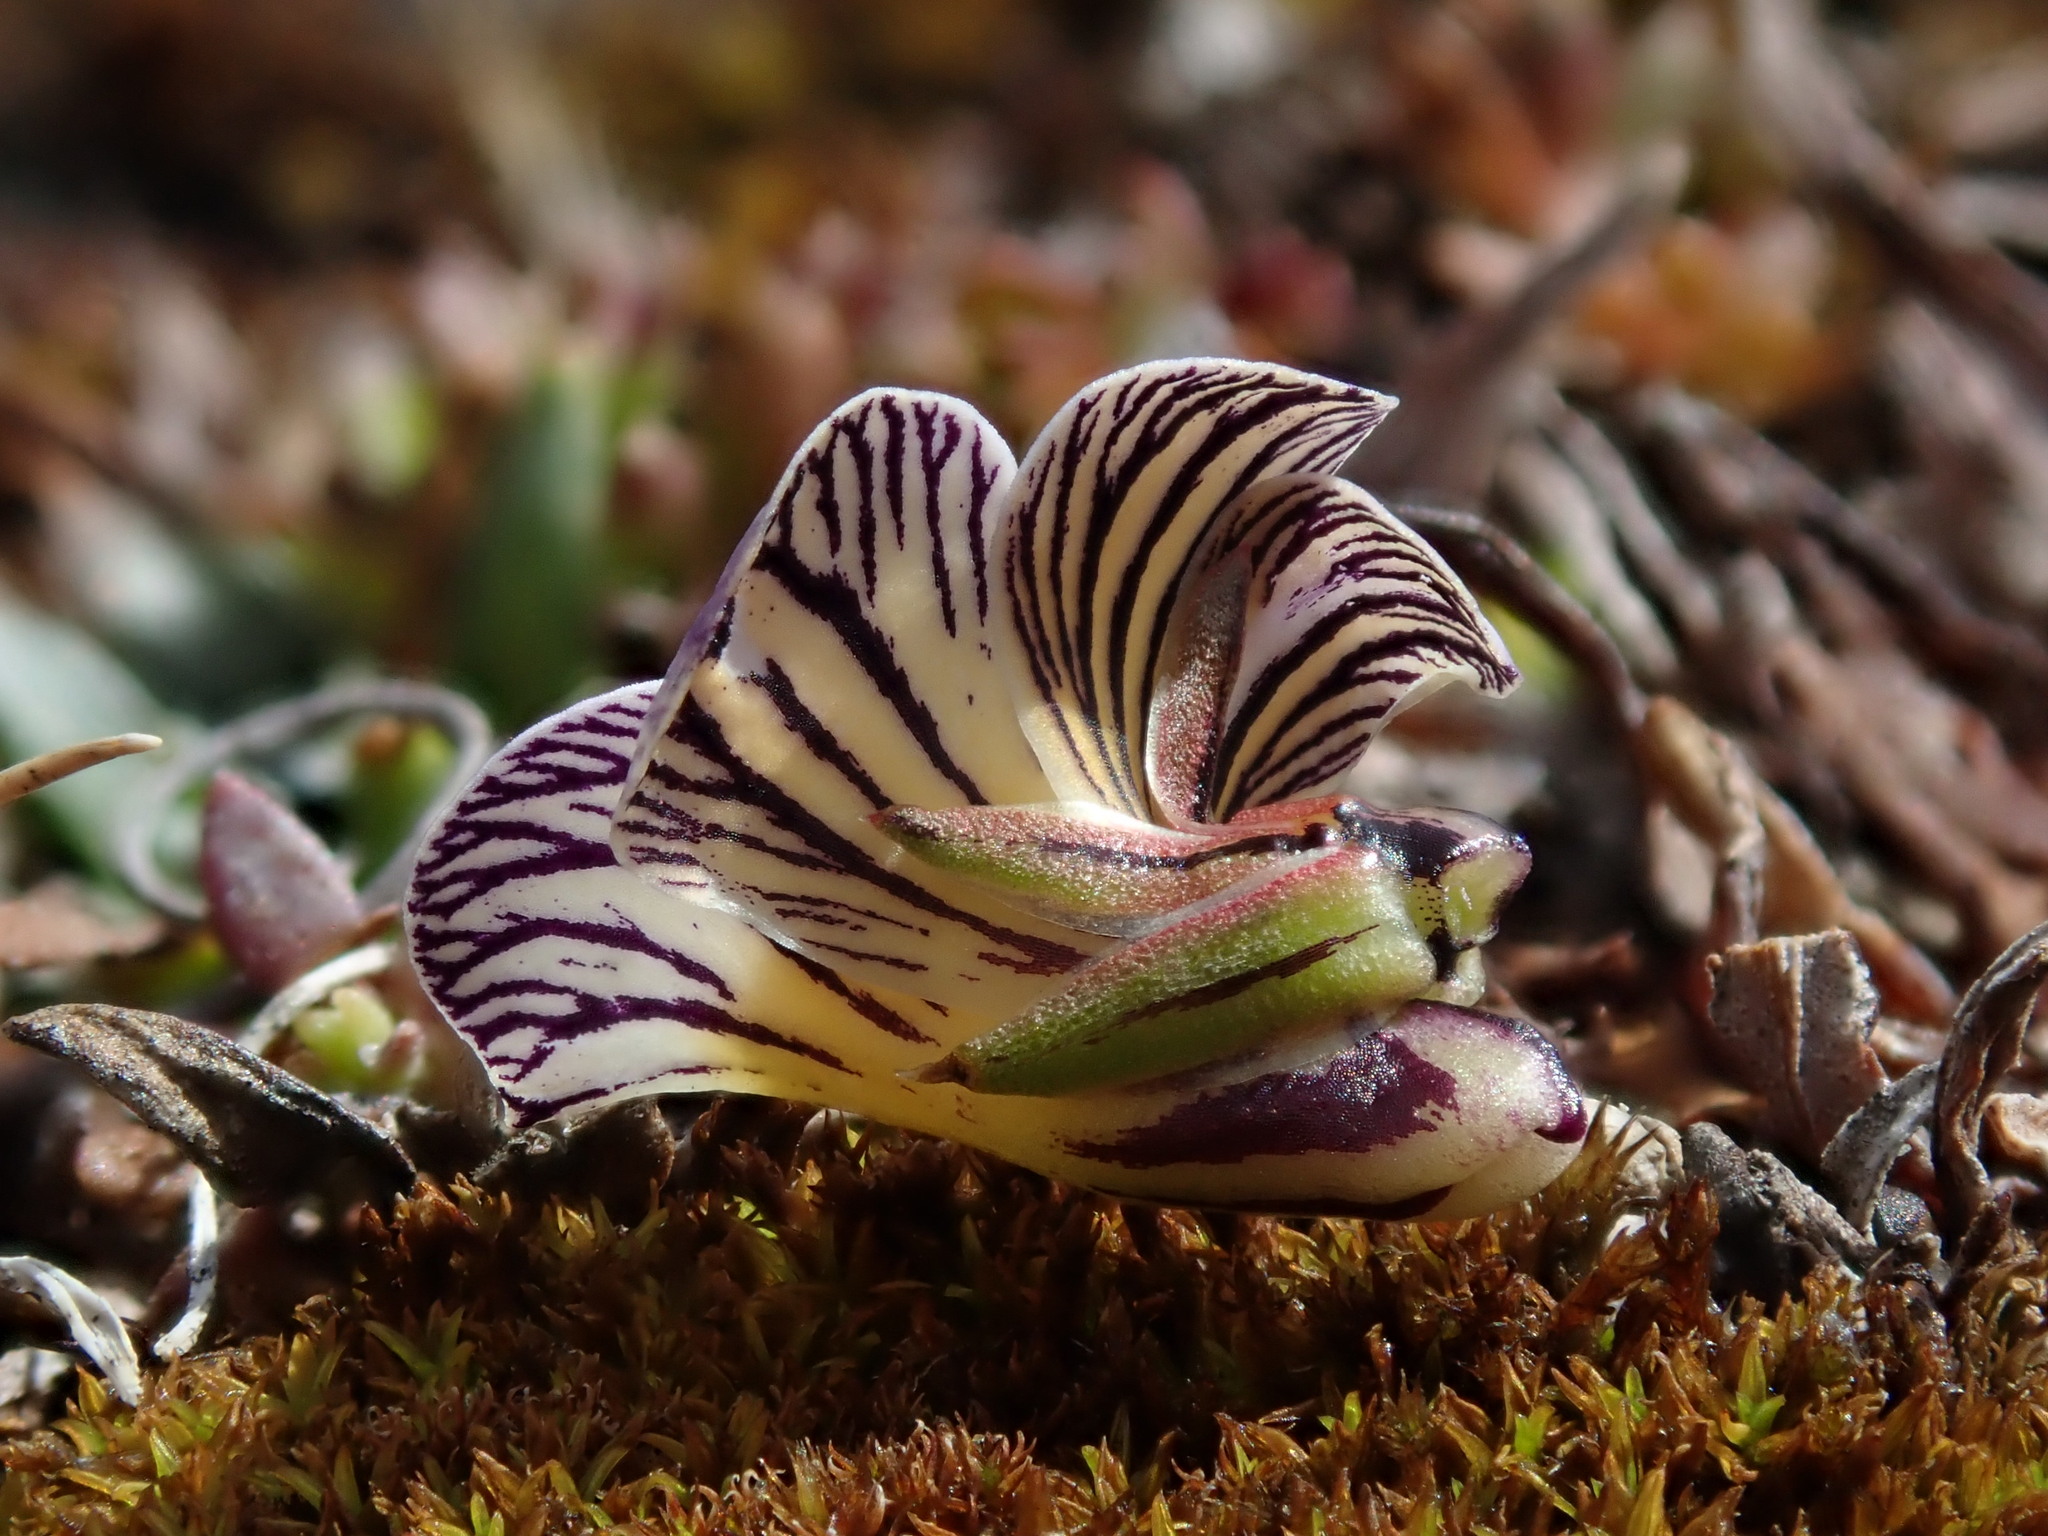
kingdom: Plantae
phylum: Tracheophyta
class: Magnoliopsida
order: Malpighiales
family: Violaceae
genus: Viola
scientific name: Viola pygmaea
